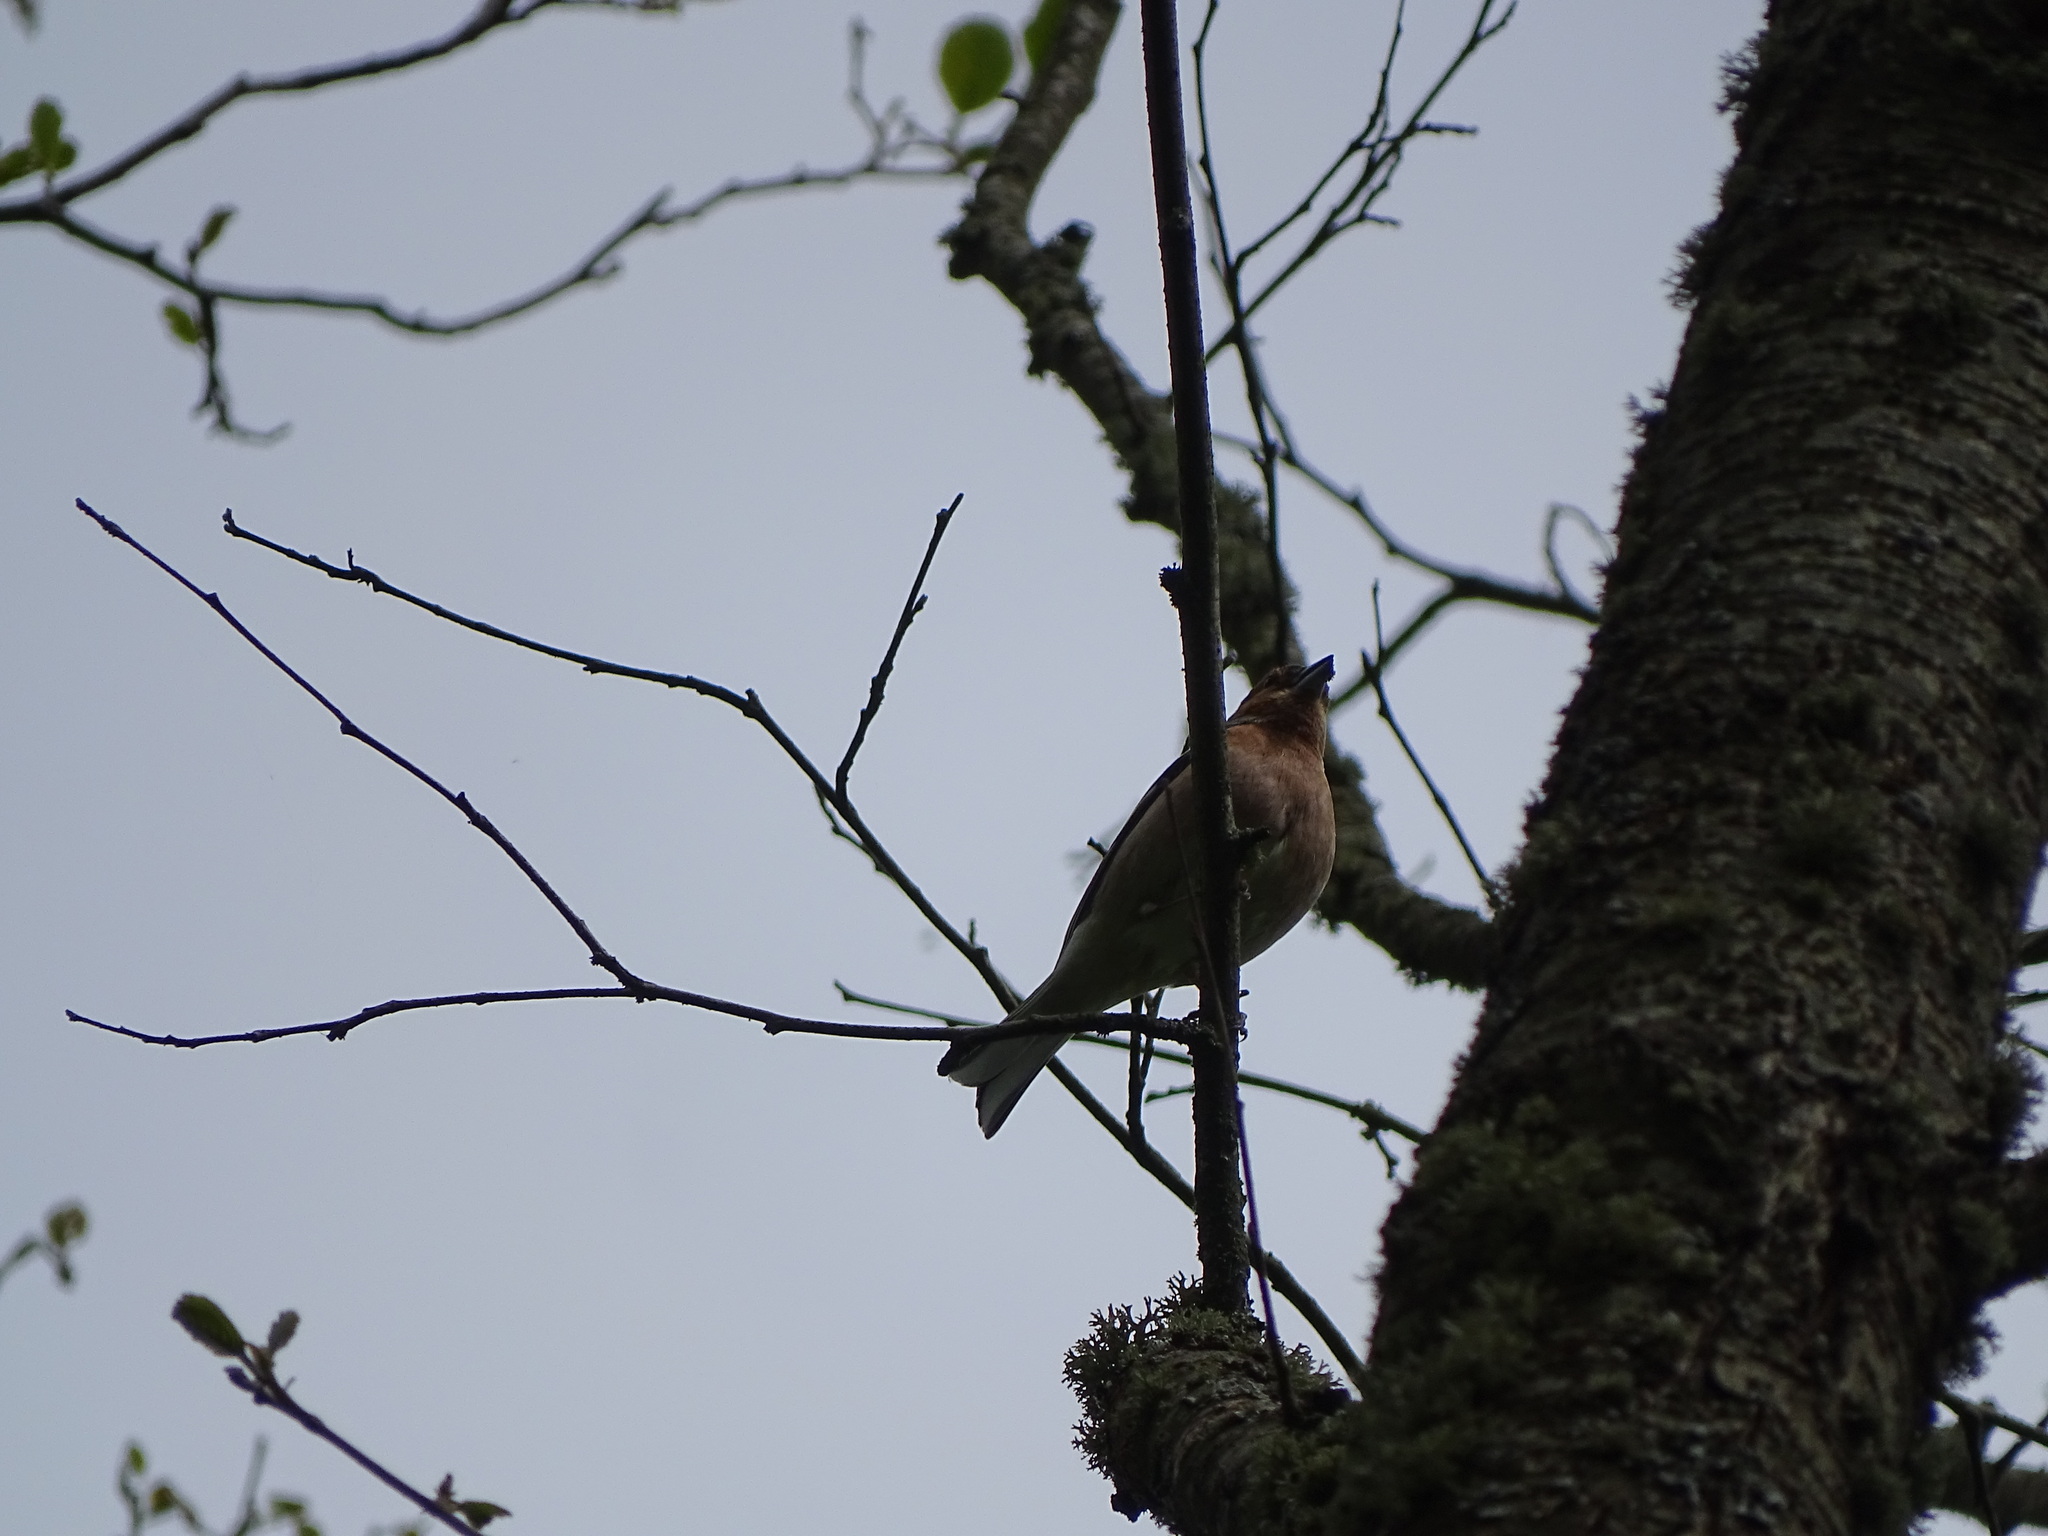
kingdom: Animalia
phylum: Chordata
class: Aves
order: Passeriformes
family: Fringillidae
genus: Fringilla
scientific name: Fringilla coelebs
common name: Common chaffinch
